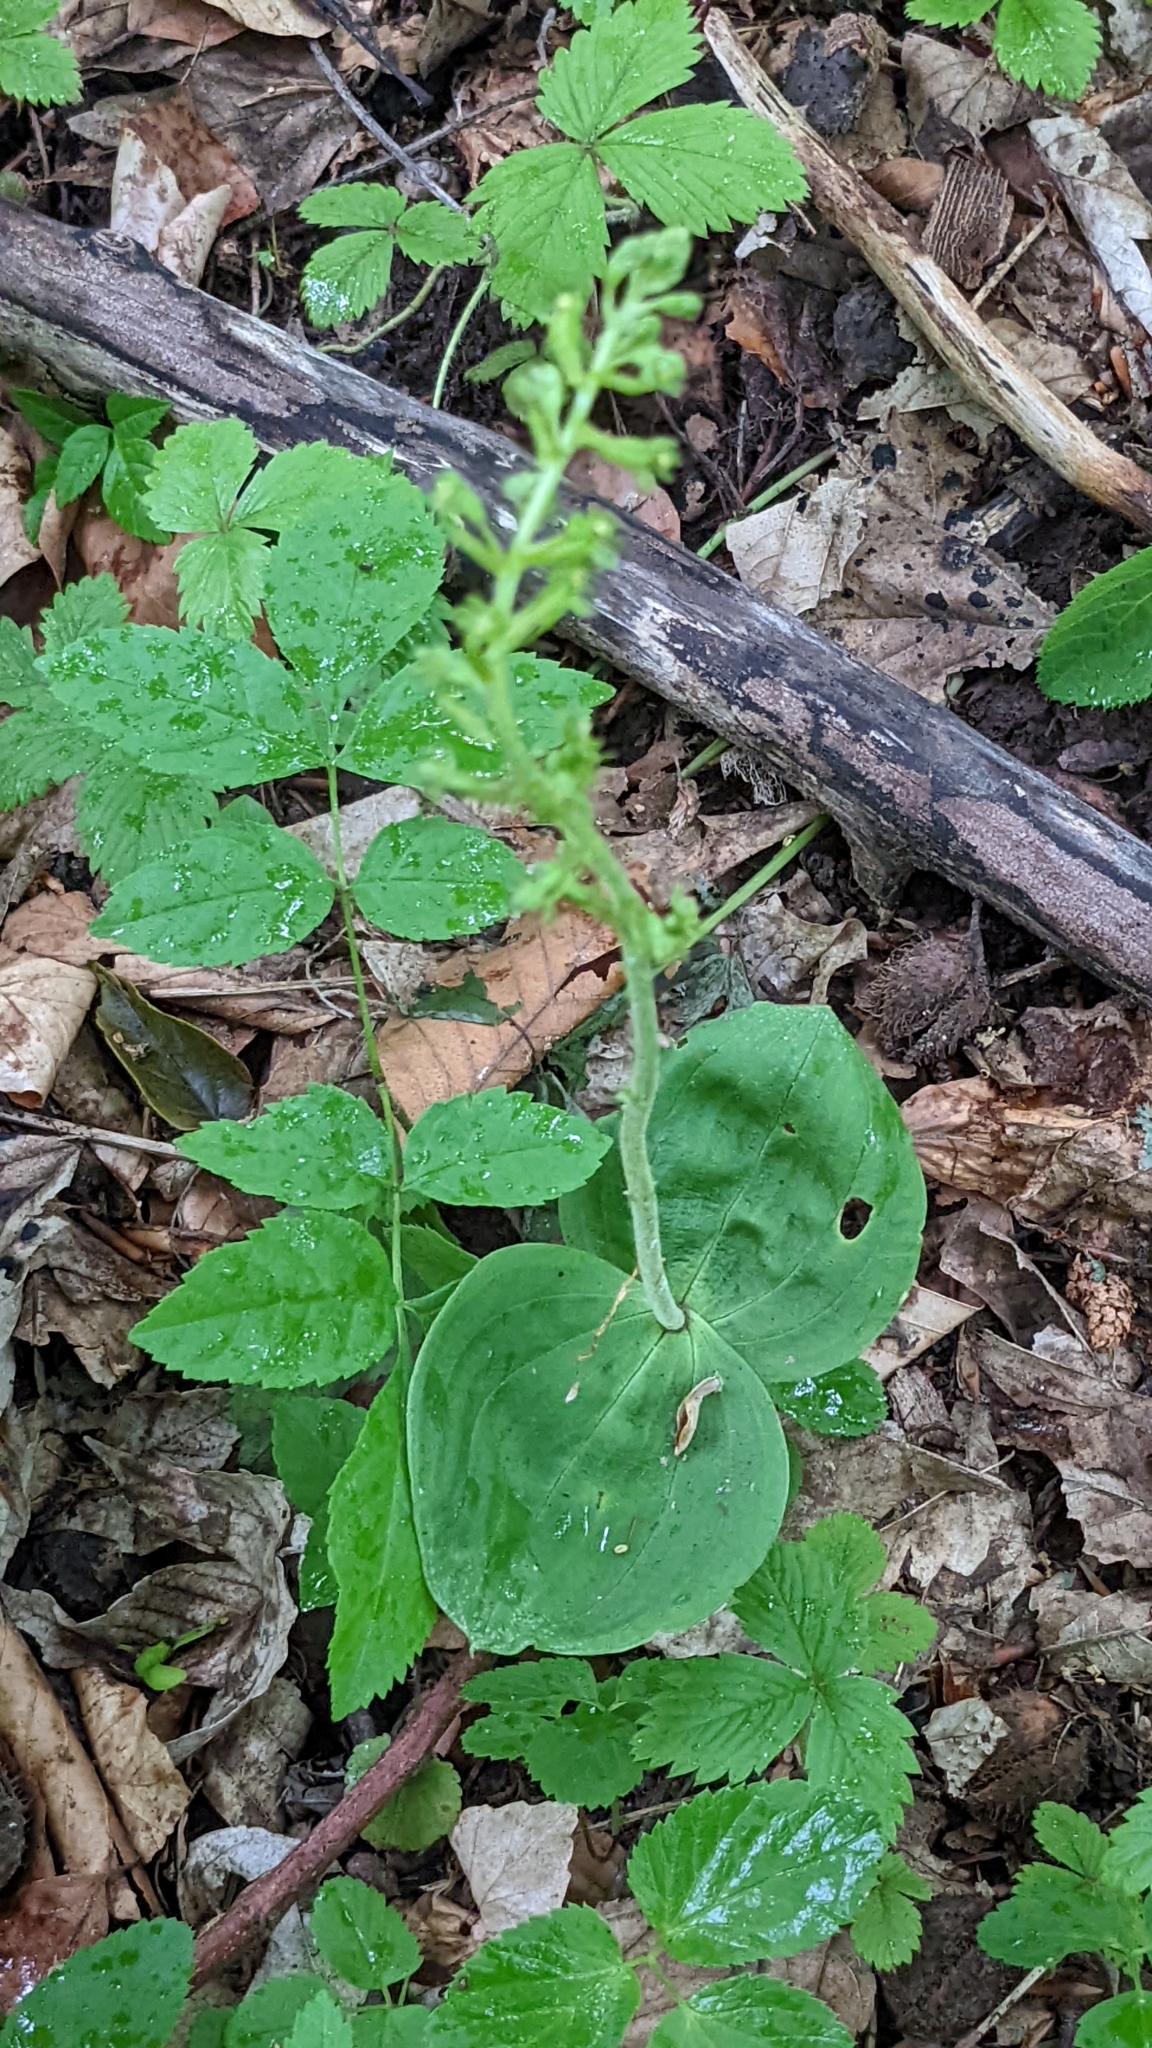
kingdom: Plantae
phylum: Tracheophyta
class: Liliopsida
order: Asparagales
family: Orchidaceae
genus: Neottia
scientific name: Neottia ovata
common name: Common twayblade
